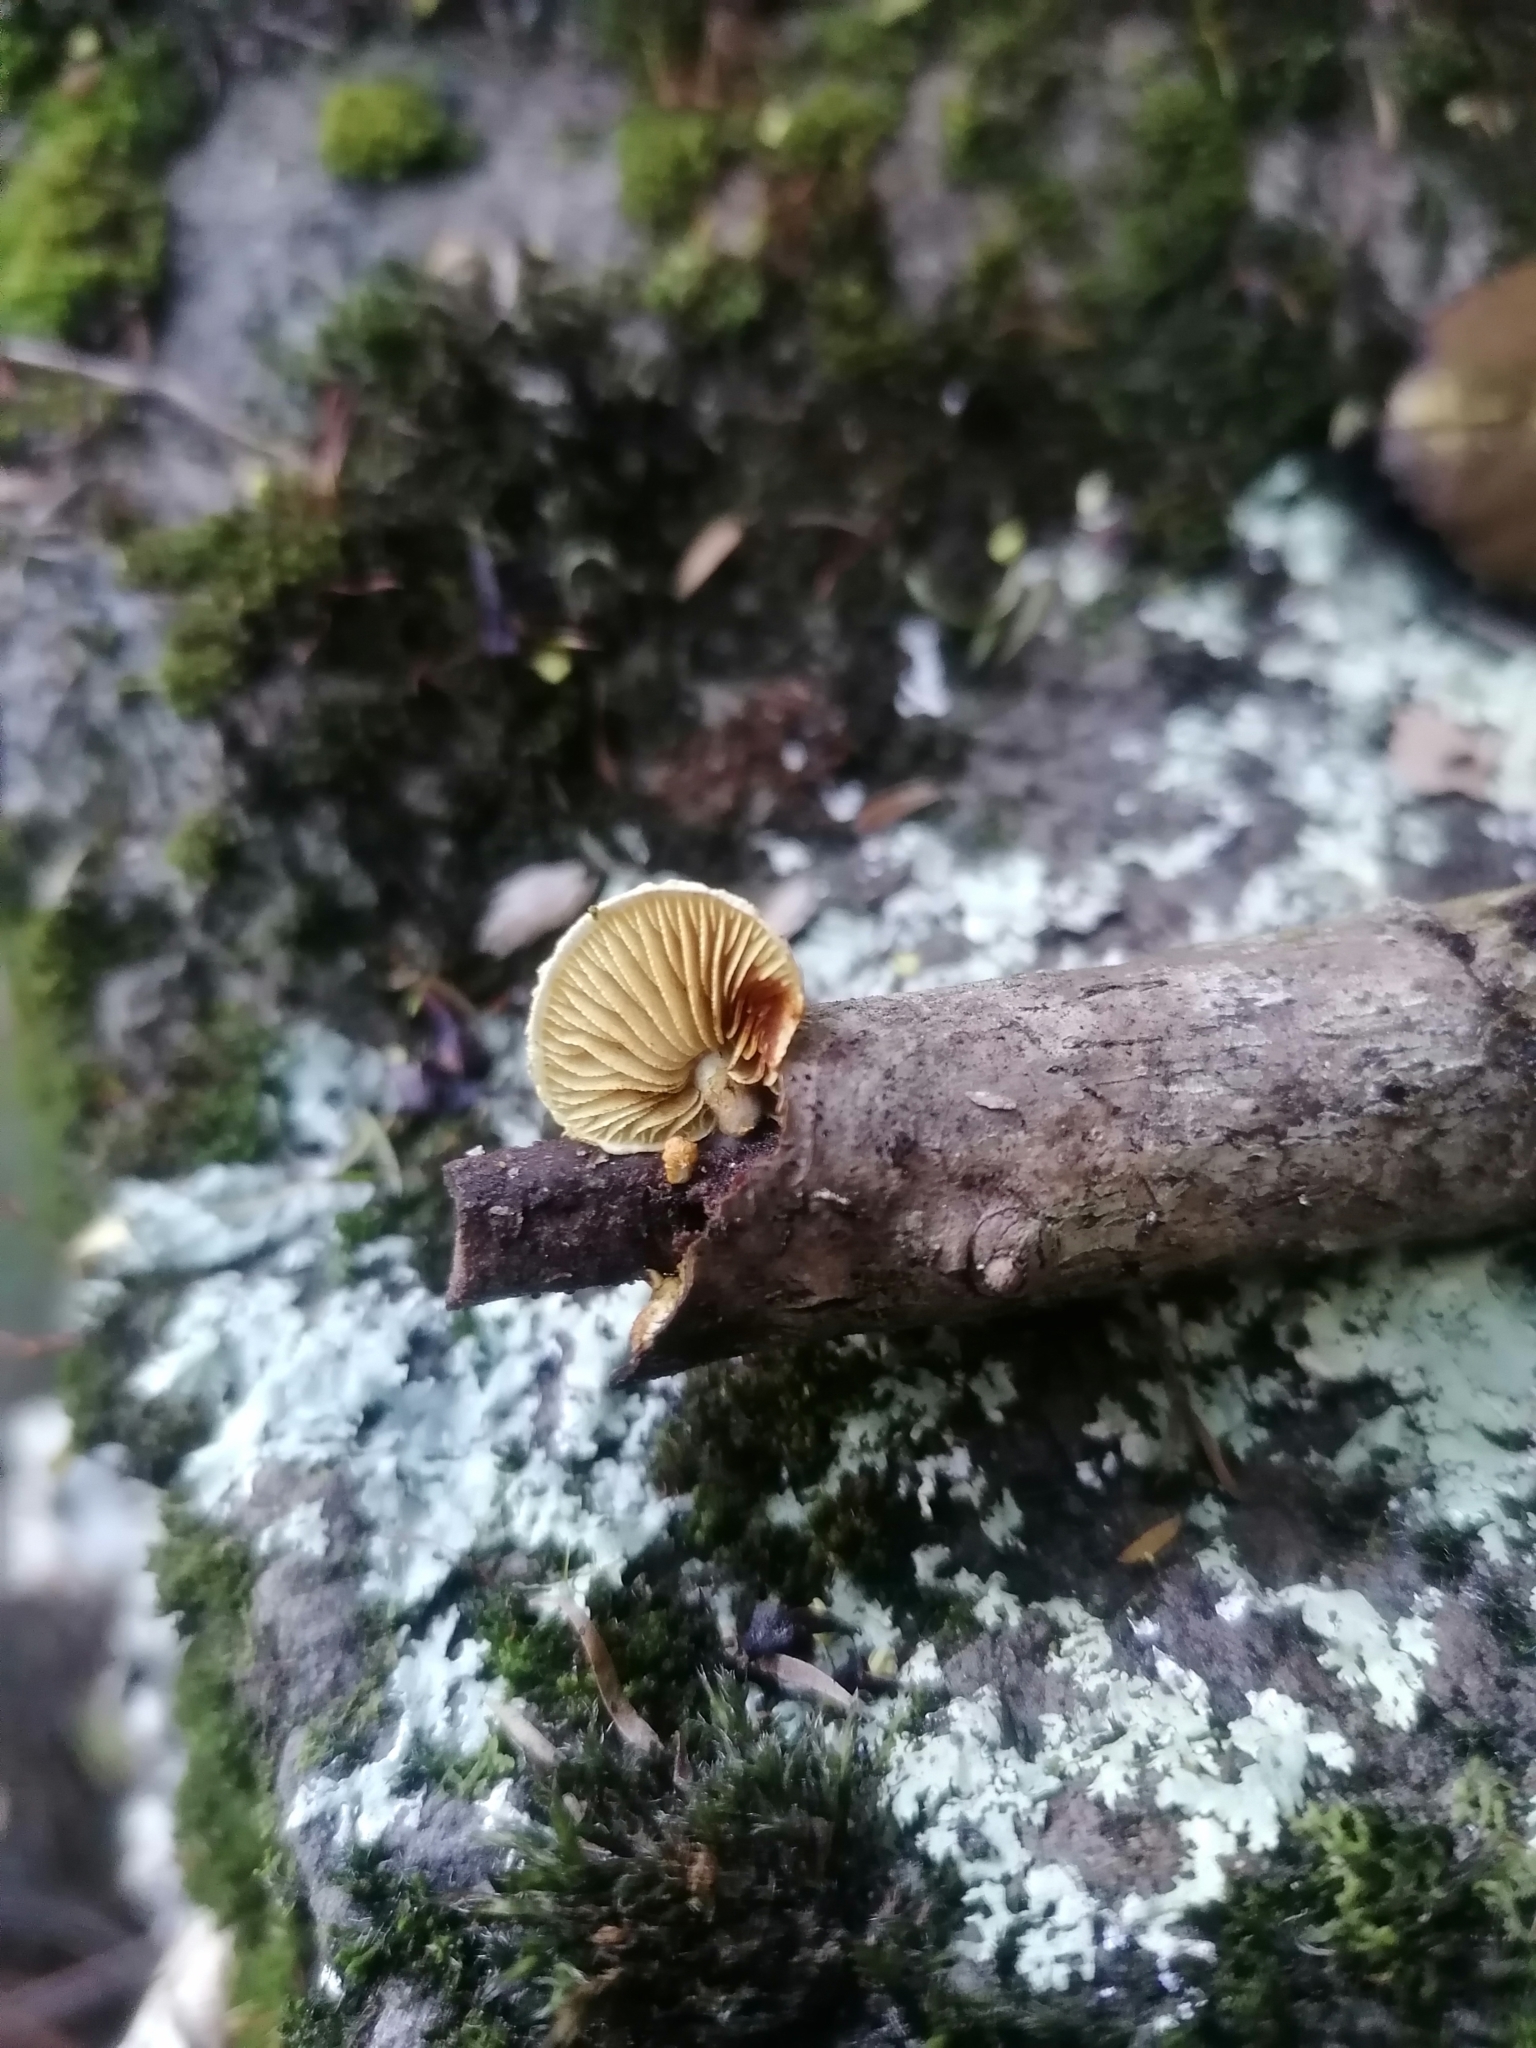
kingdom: Fungi
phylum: Basidiomycota
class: Agaricomycetes
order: Agaricales
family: Crepidotaceae
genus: Pleuroflammula
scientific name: Pleuroflammula praestans
